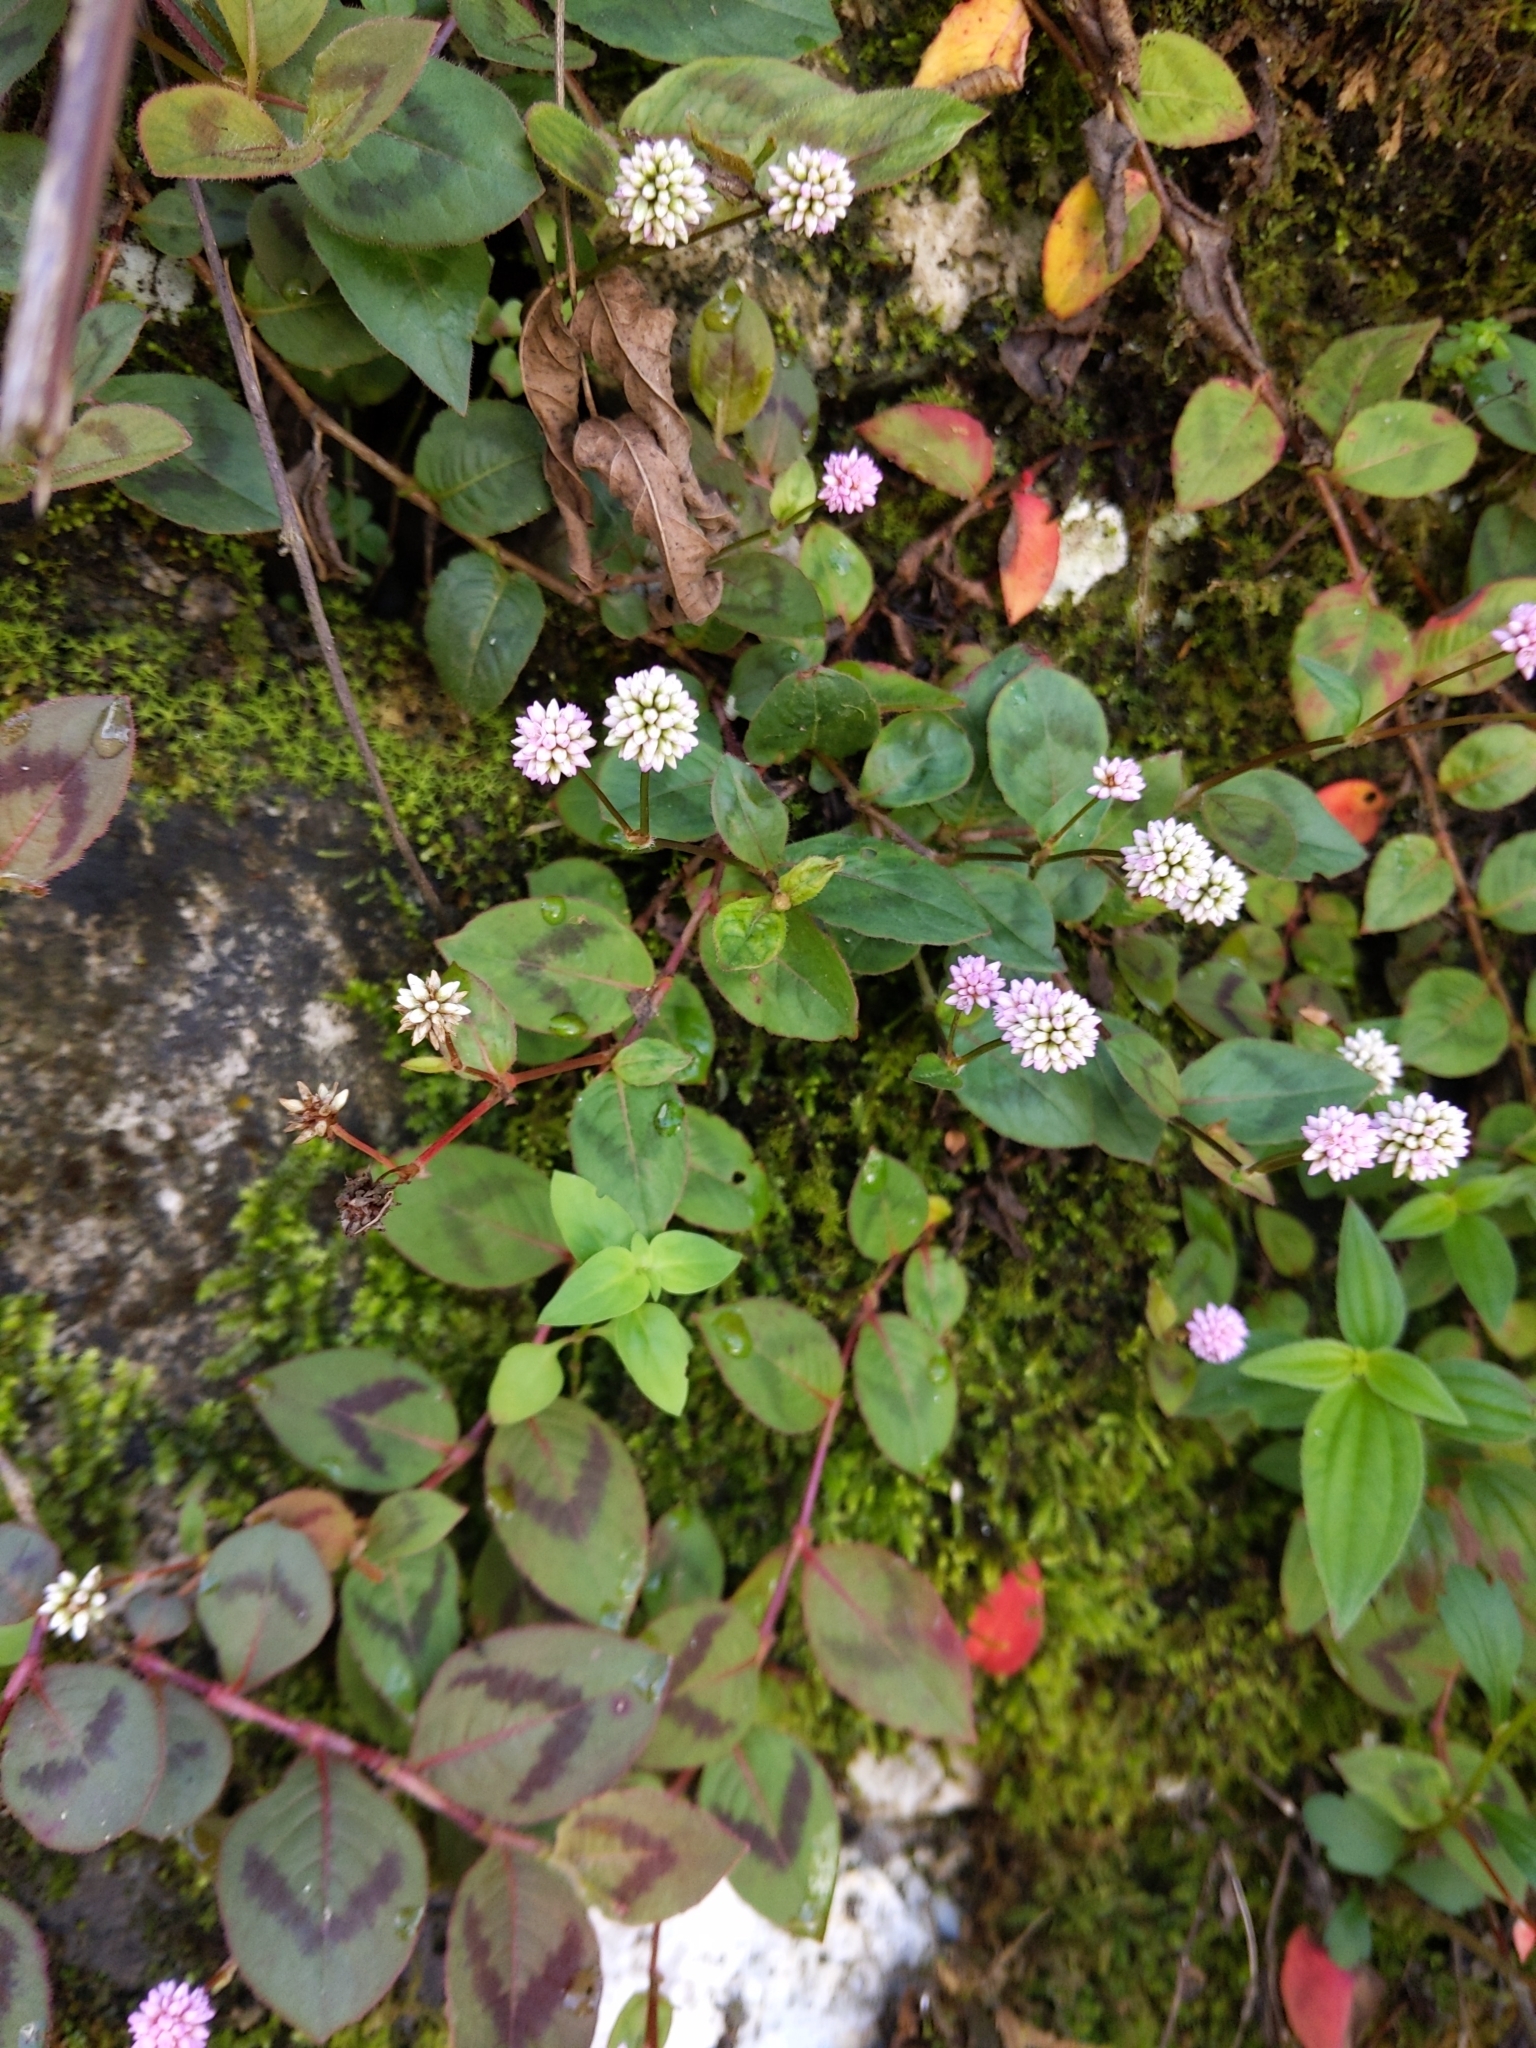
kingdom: Plantae
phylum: Tracheophyta
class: Magnoliopsida
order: Caryophyllales
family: Polygonaceae
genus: Persicaria
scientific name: Persicaria capitata
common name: Pinkhead smartweed
